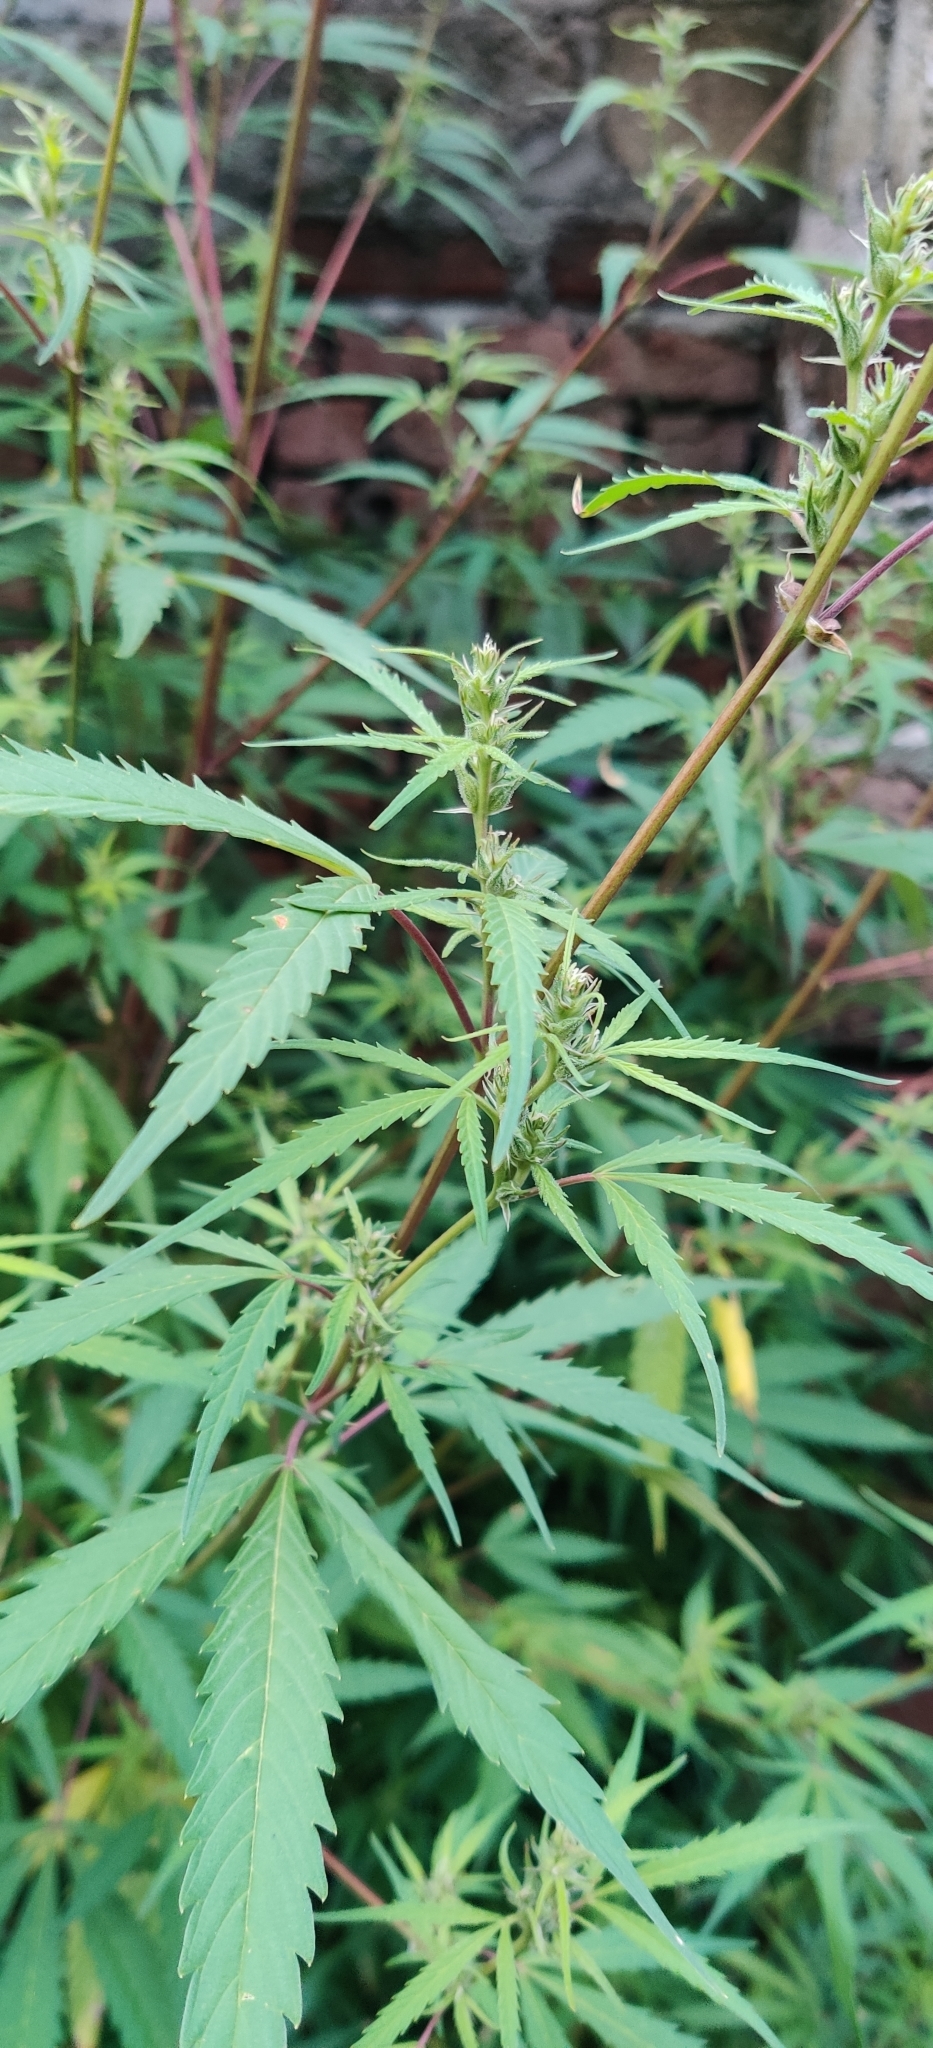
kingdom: Plantae
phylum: Tracheophyta
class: Magnoliopsida
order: Rosales
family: Cannabaceae
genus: Cannabis
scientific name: Cannabis sativa
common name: Hemp
